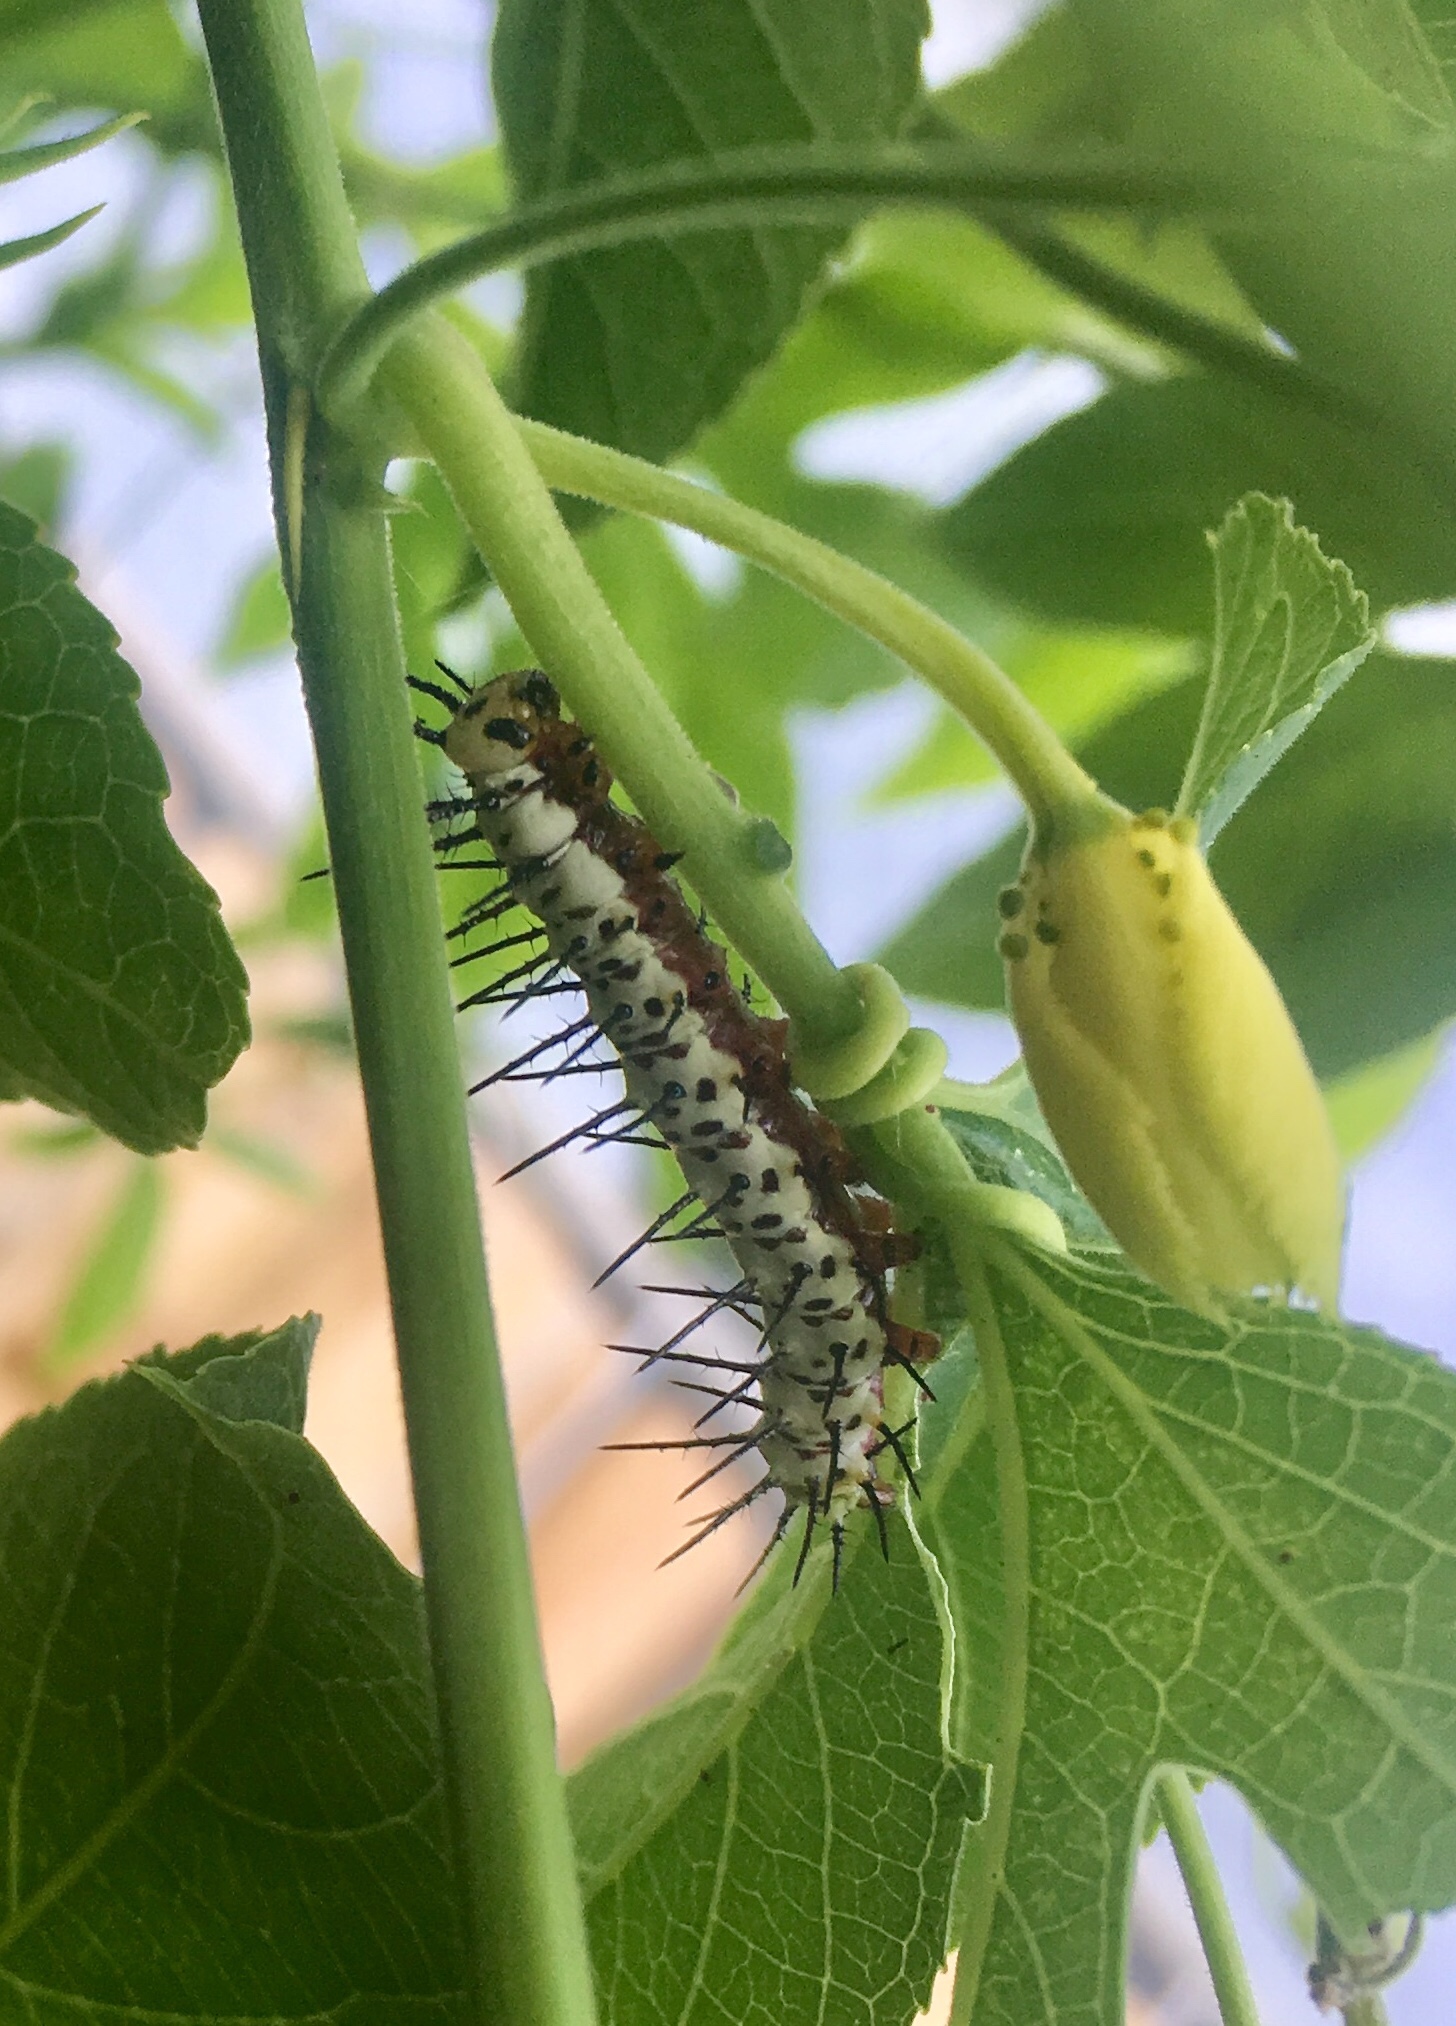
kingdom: Animalia
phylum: Arthropoda
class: Insecta
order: Lepidoptera
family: Nymphalidae
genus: Heliconius
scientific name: Heliconius charithonia
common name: Zebra long wing
